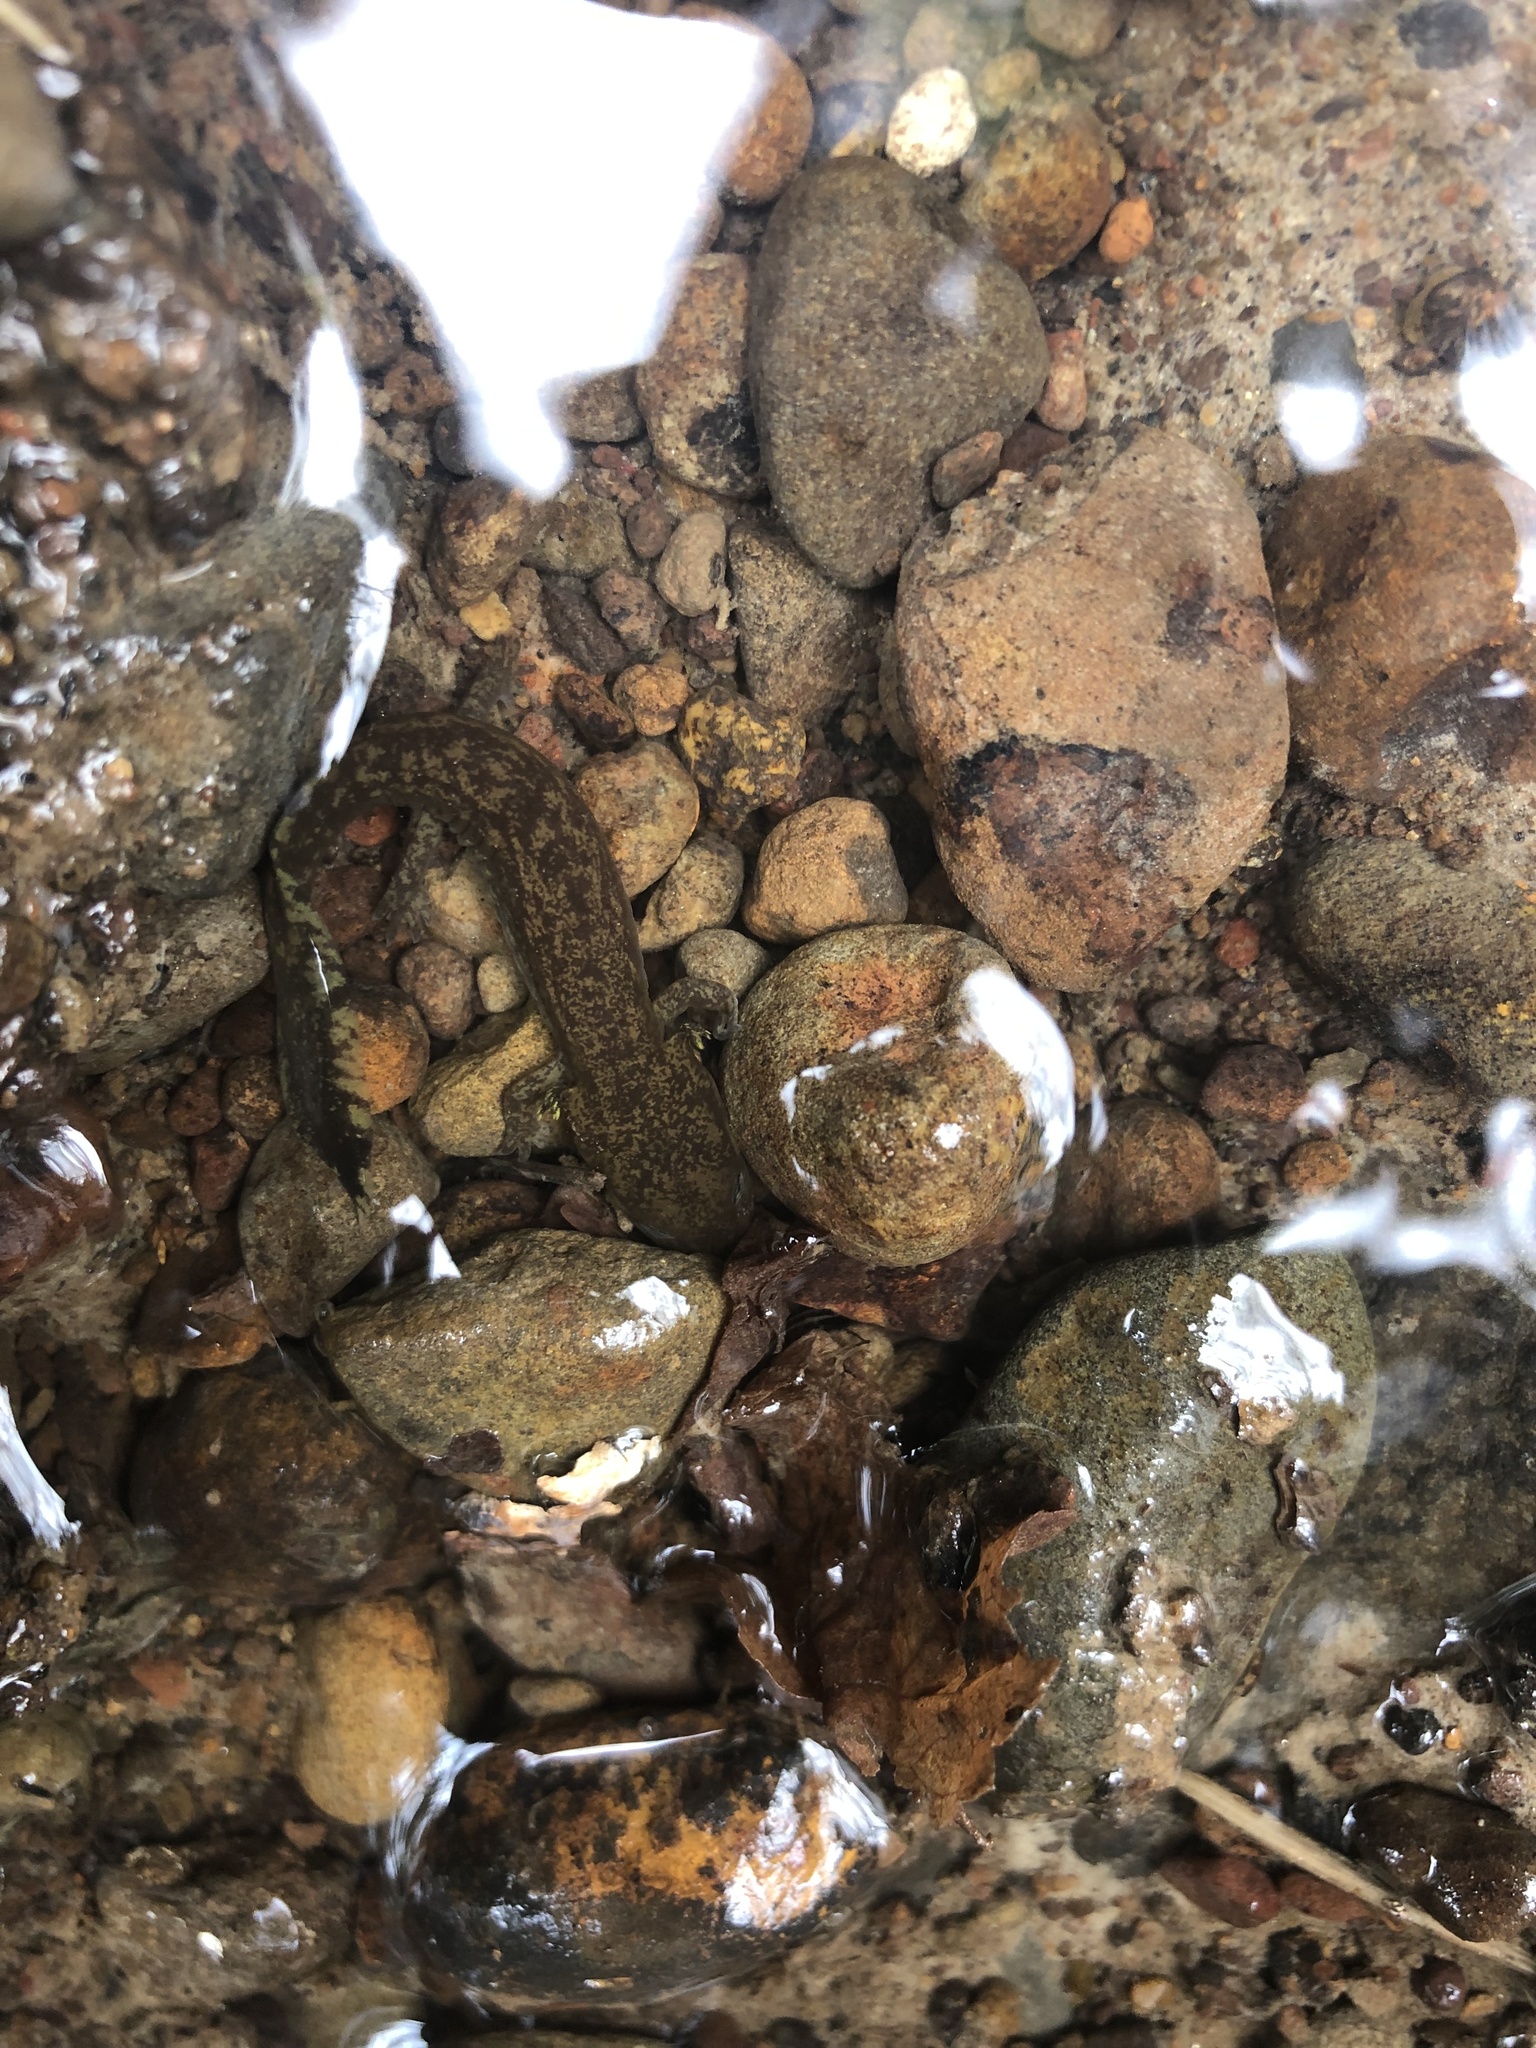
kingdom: Animalia
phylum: Chordata
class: Amphibia
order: Caudata
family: Ambystomatidae
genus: Dicamptodon
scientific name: Dicamptodon tenebrosus
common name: Coastal giant salamander
